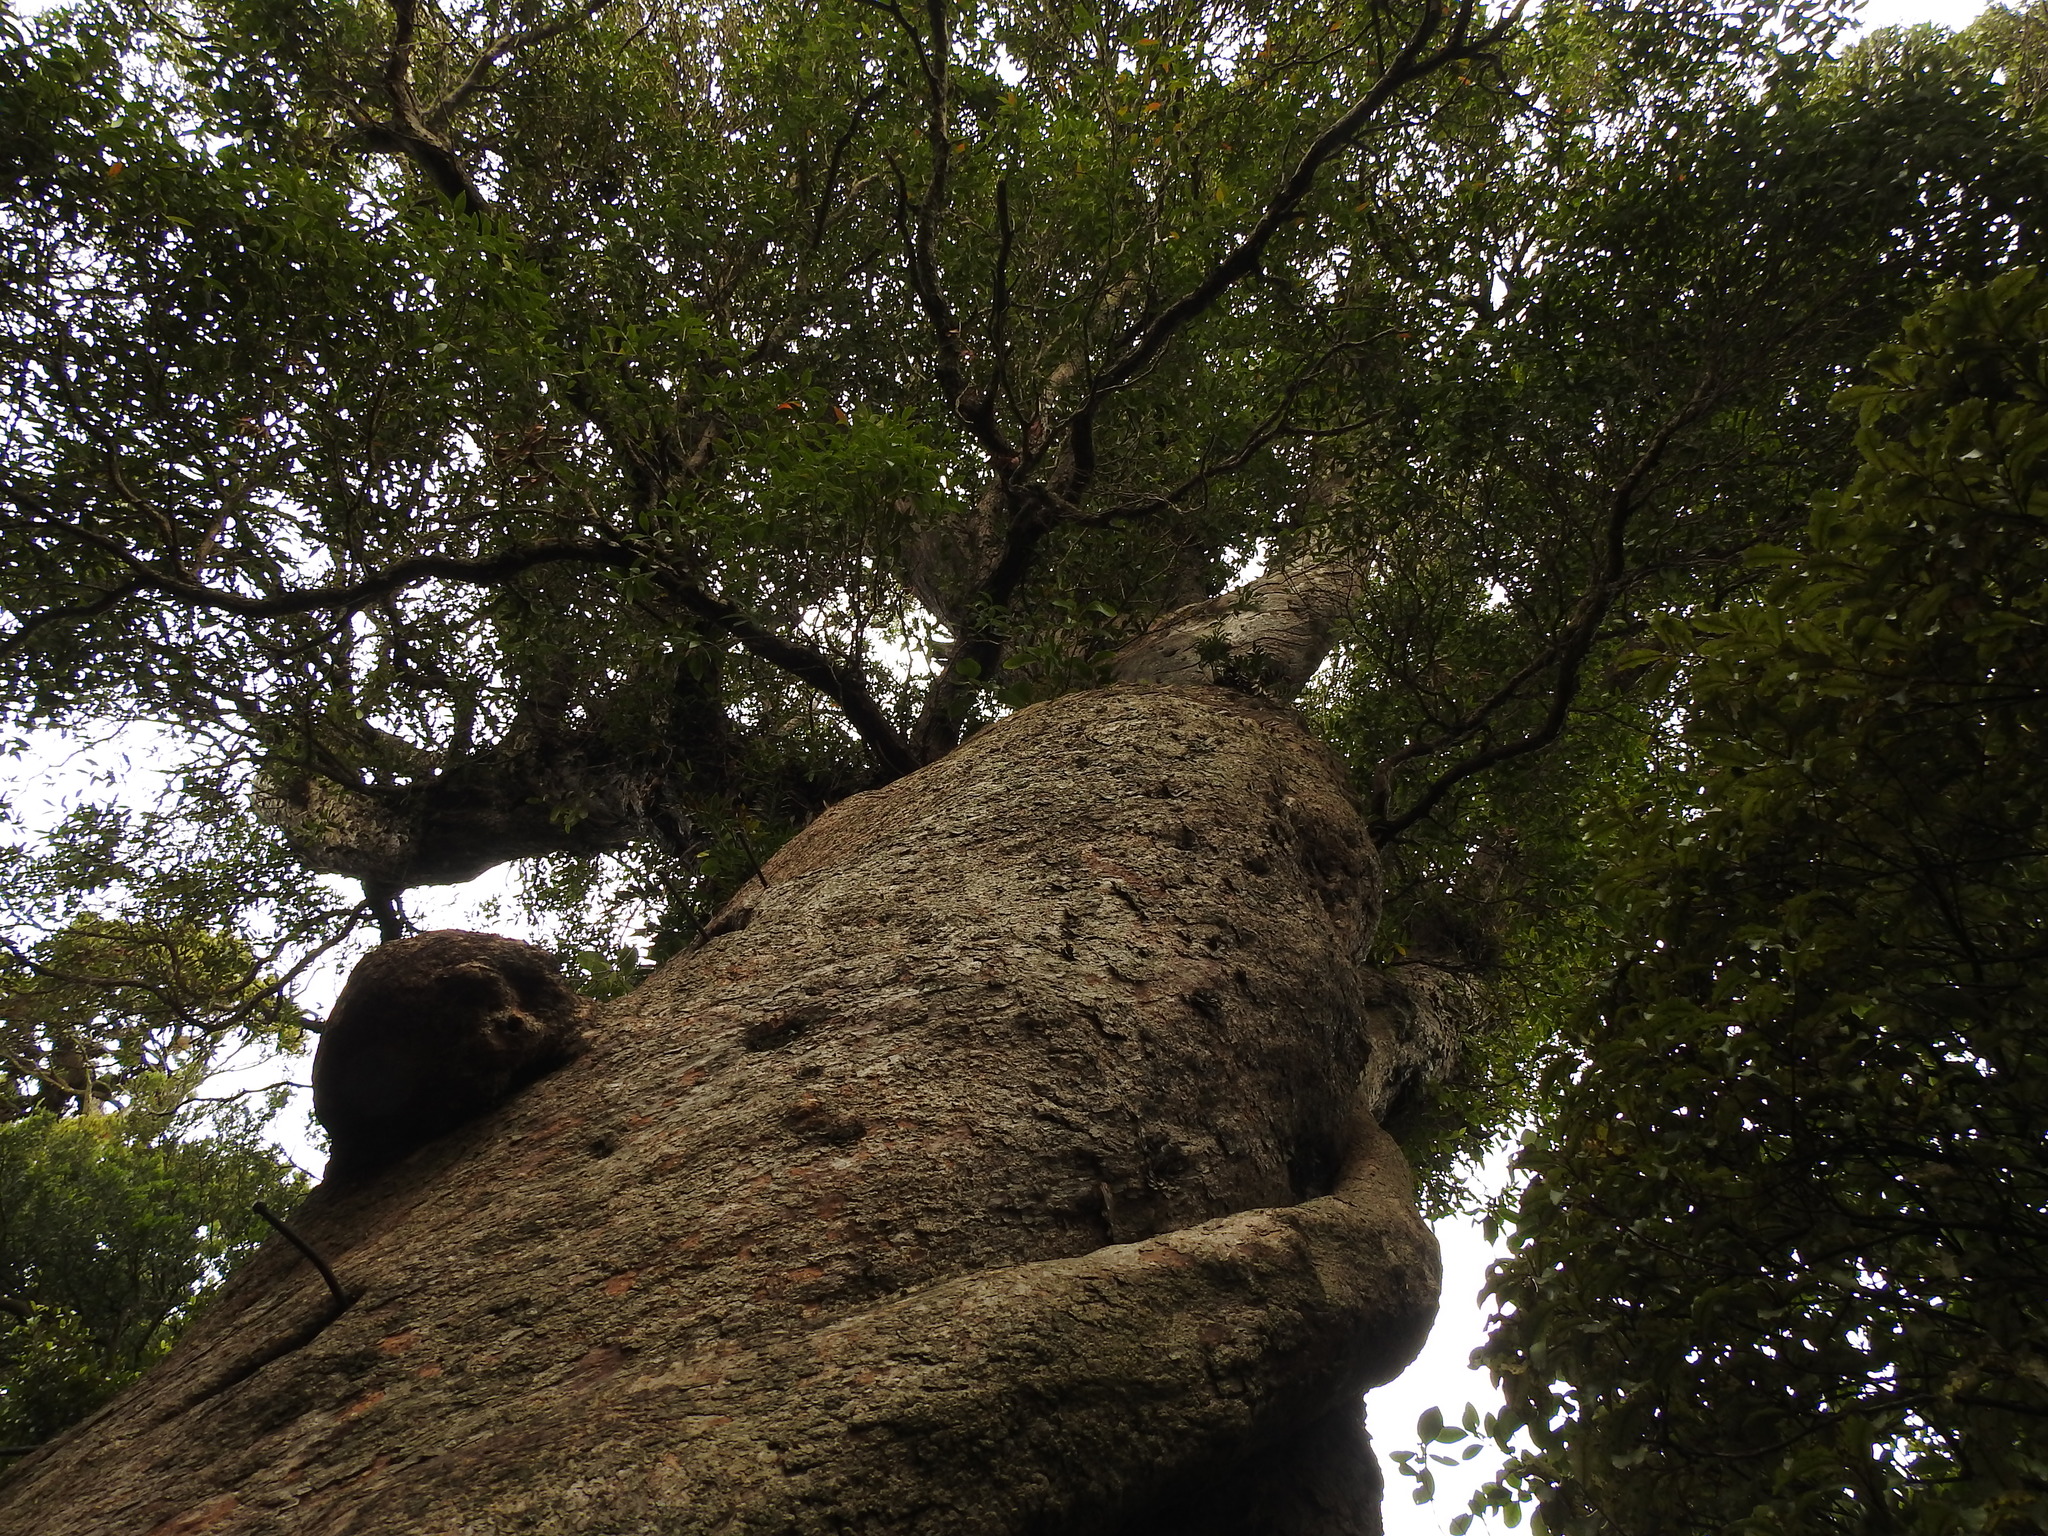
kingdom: Plantae
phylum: Tracheophyta
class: Magnoliopsida
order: Myrtales
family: Myrtaceae
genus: Metrosideros
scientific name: Metrosideros umbellata
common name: Southern rata
